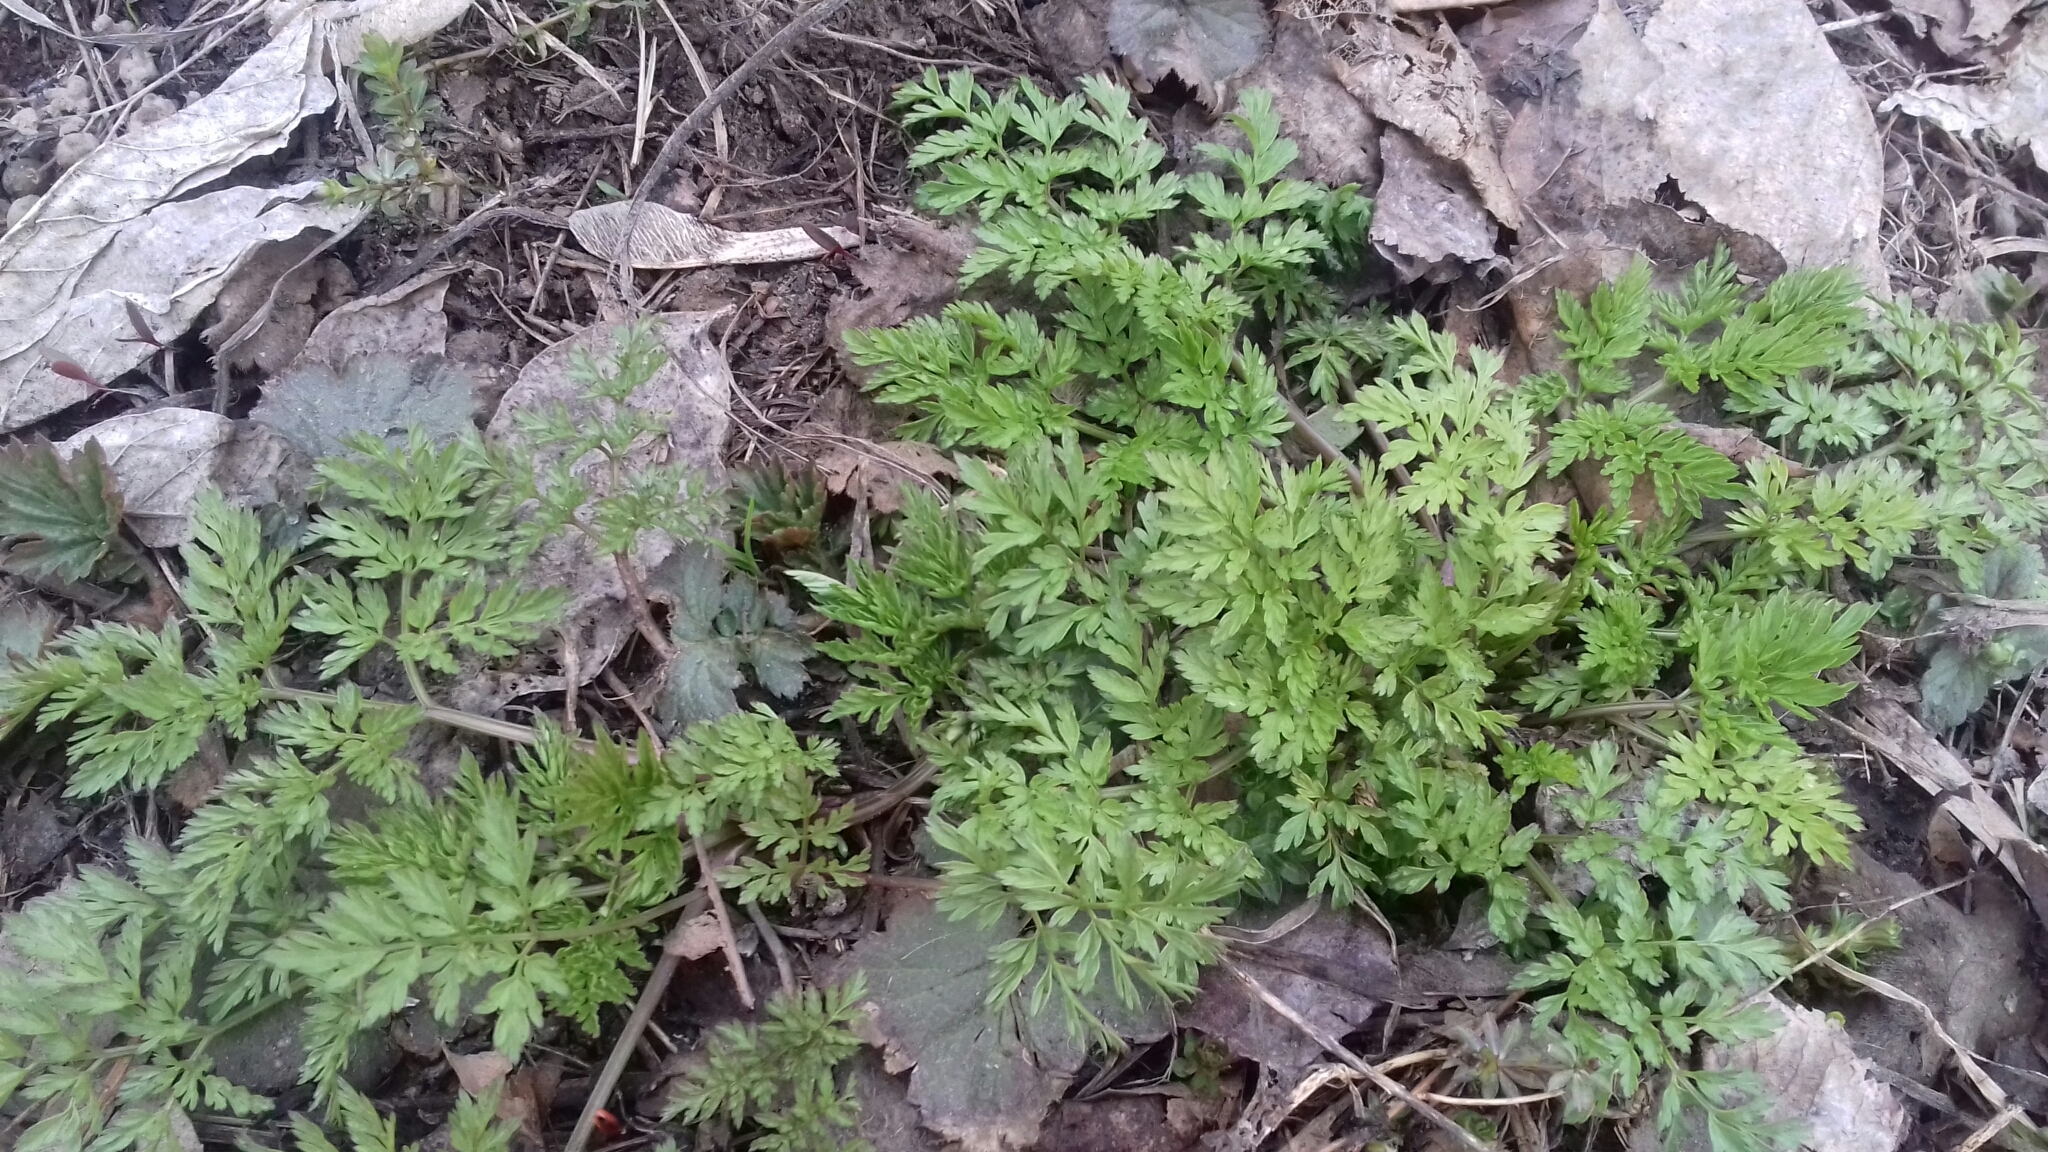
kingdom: Plantae
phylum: Tracheophyta
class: Magnoliopsida
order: Apiales
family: Apiaceae
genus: Anthriscus
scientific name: Anthriscus sylvestris
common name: Cow parsley
